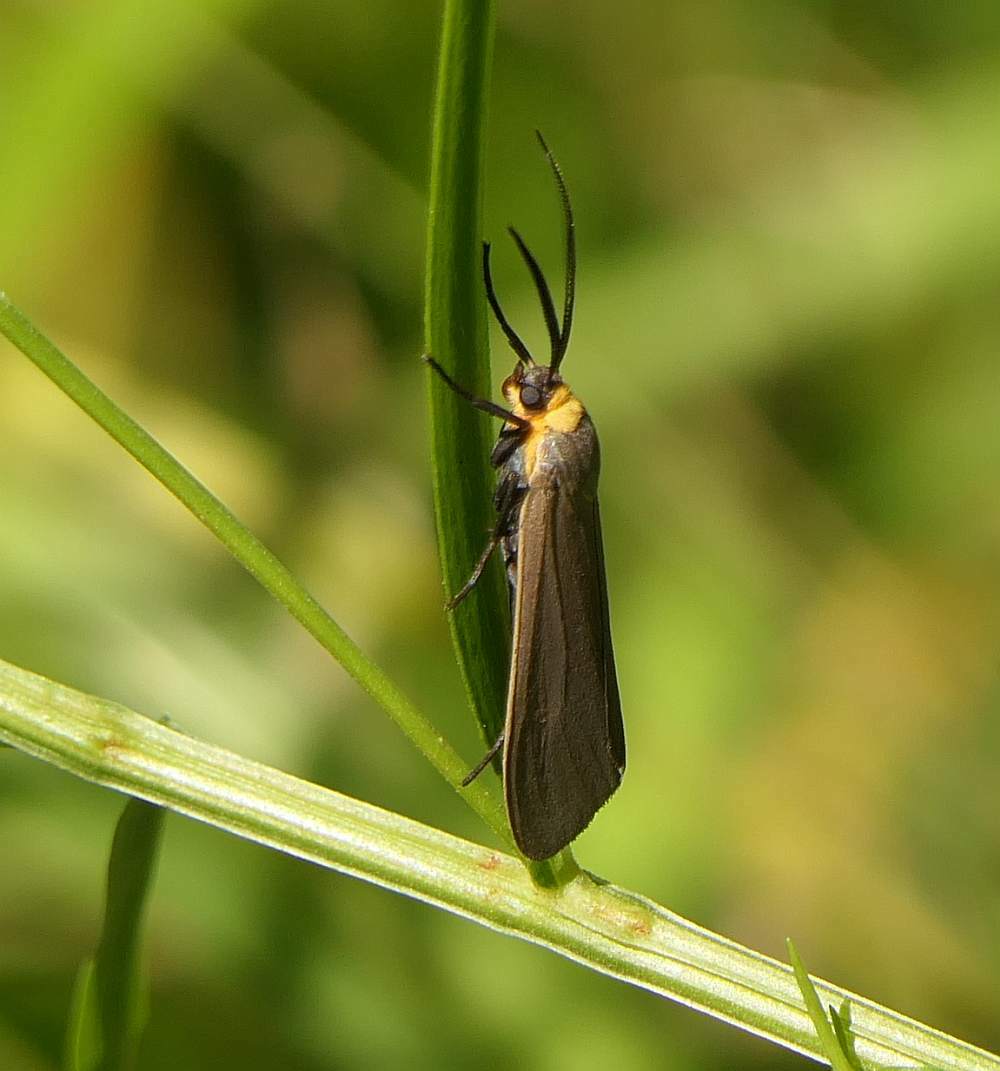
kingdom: Animalia
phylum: Arthropoda
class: Insecta
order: Lepidoptera
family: Erebidae
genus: Cisseps
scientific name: Cisseps fulvicollis
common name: Yellow-collared scape moth
